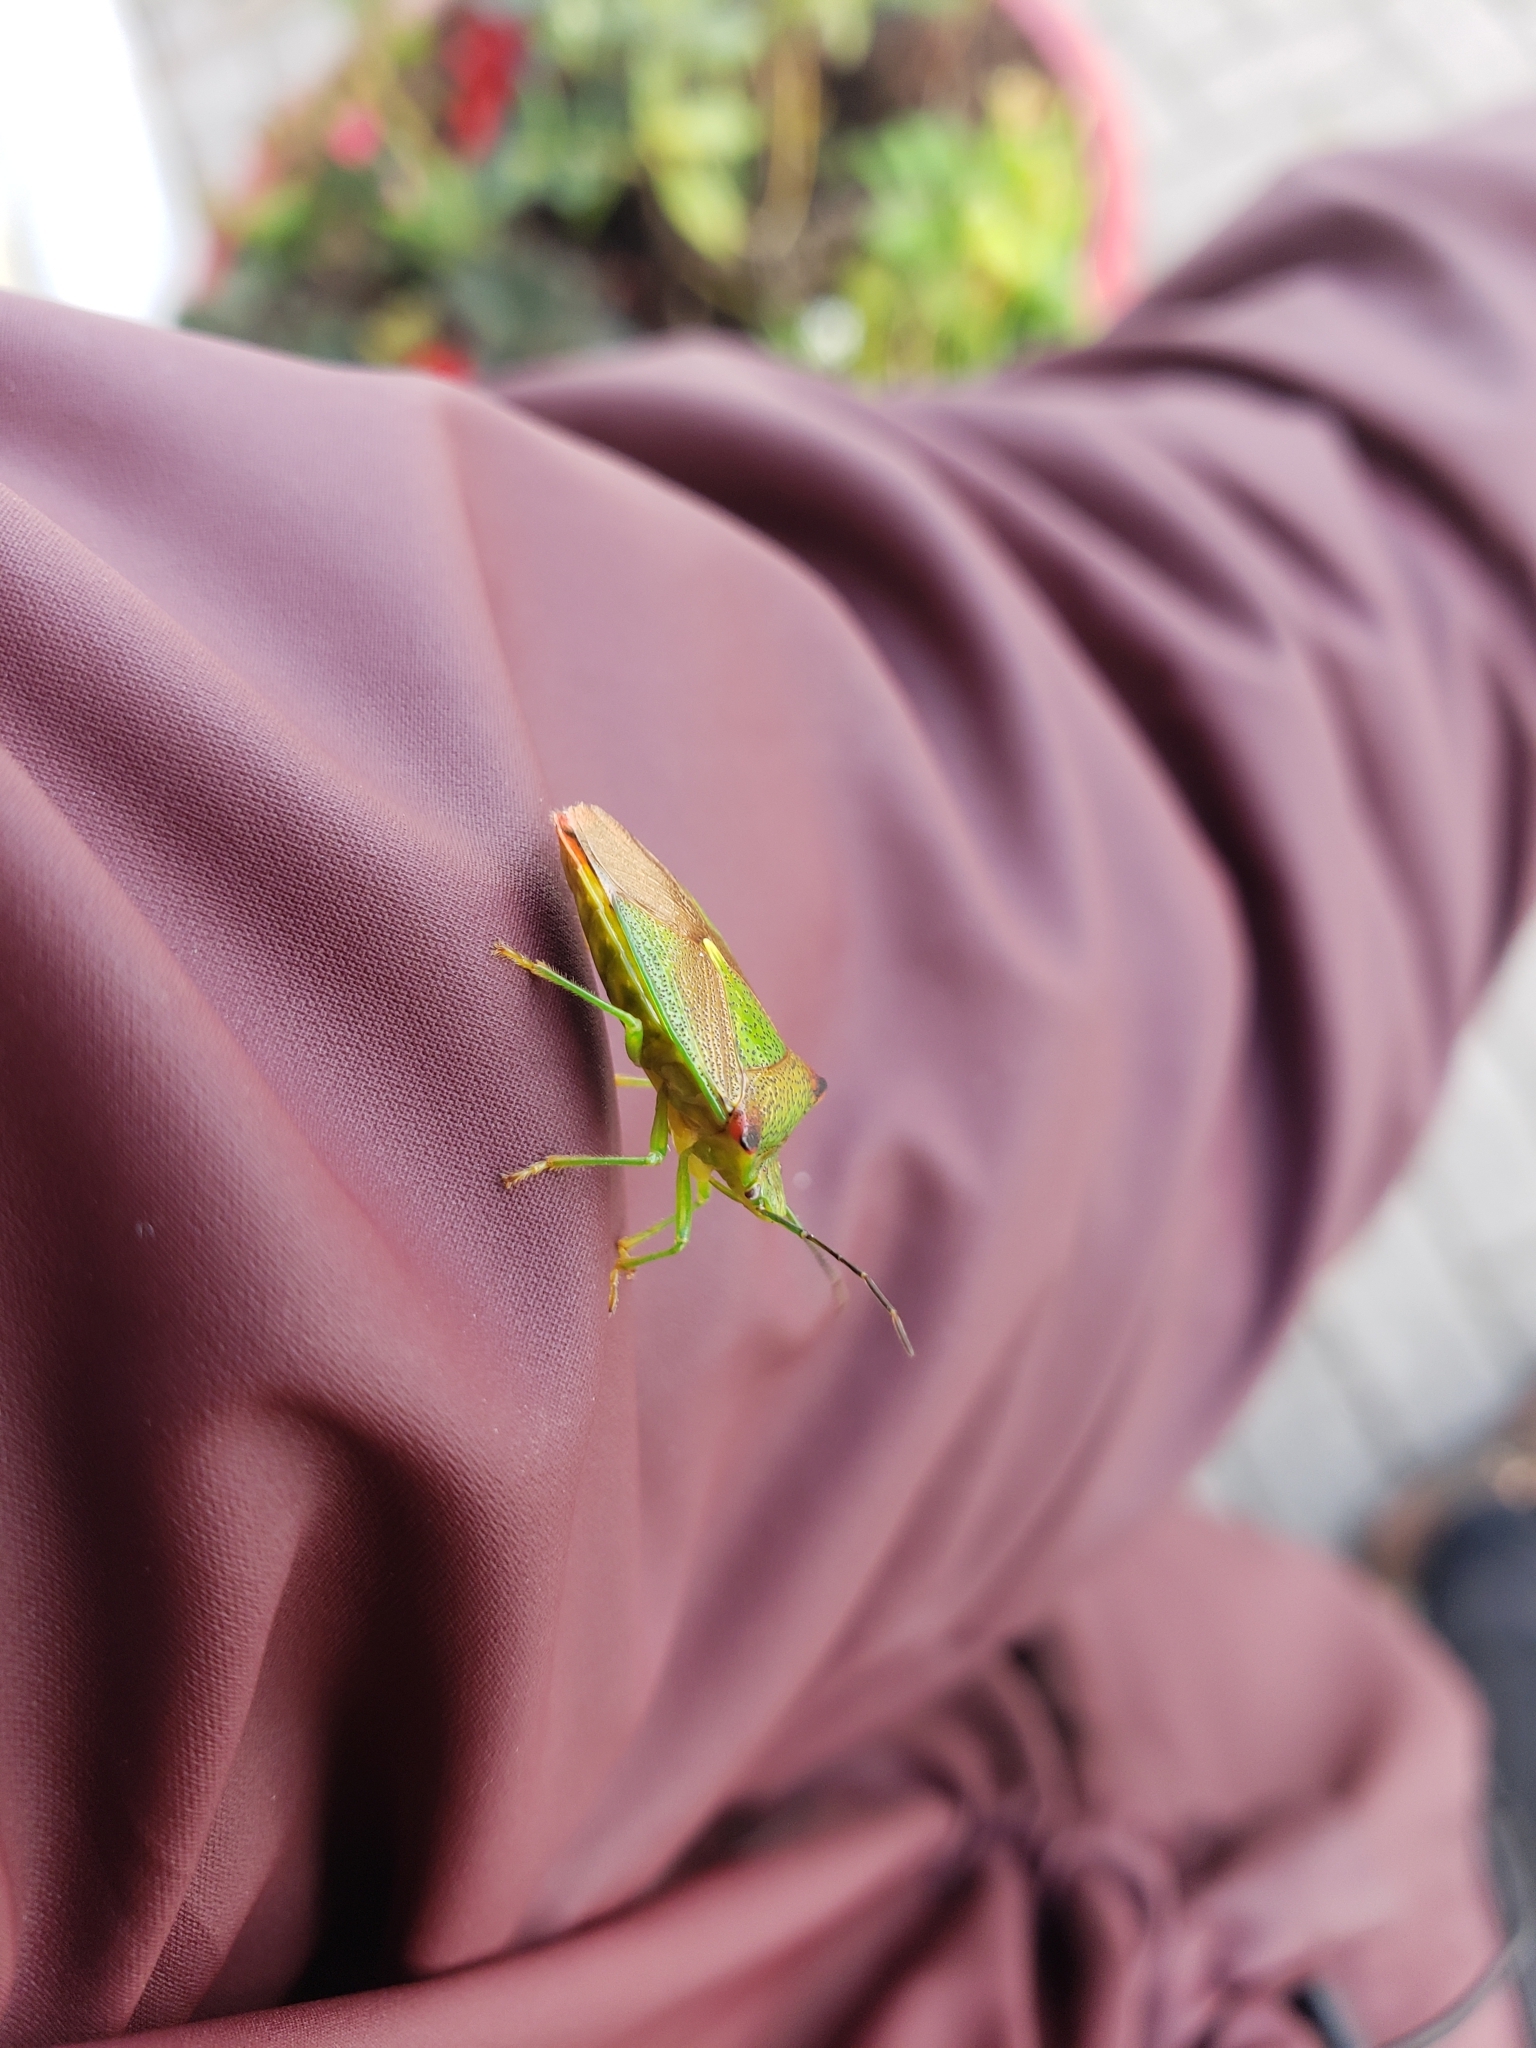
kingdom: Animalia
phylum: Arthropoda
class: Insecta
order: Hemiptera
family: Acanthosomatidae
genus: Acanthosoma
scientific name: Acanthosoma haemorrhoidale
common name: Hawthorn shieldbug
